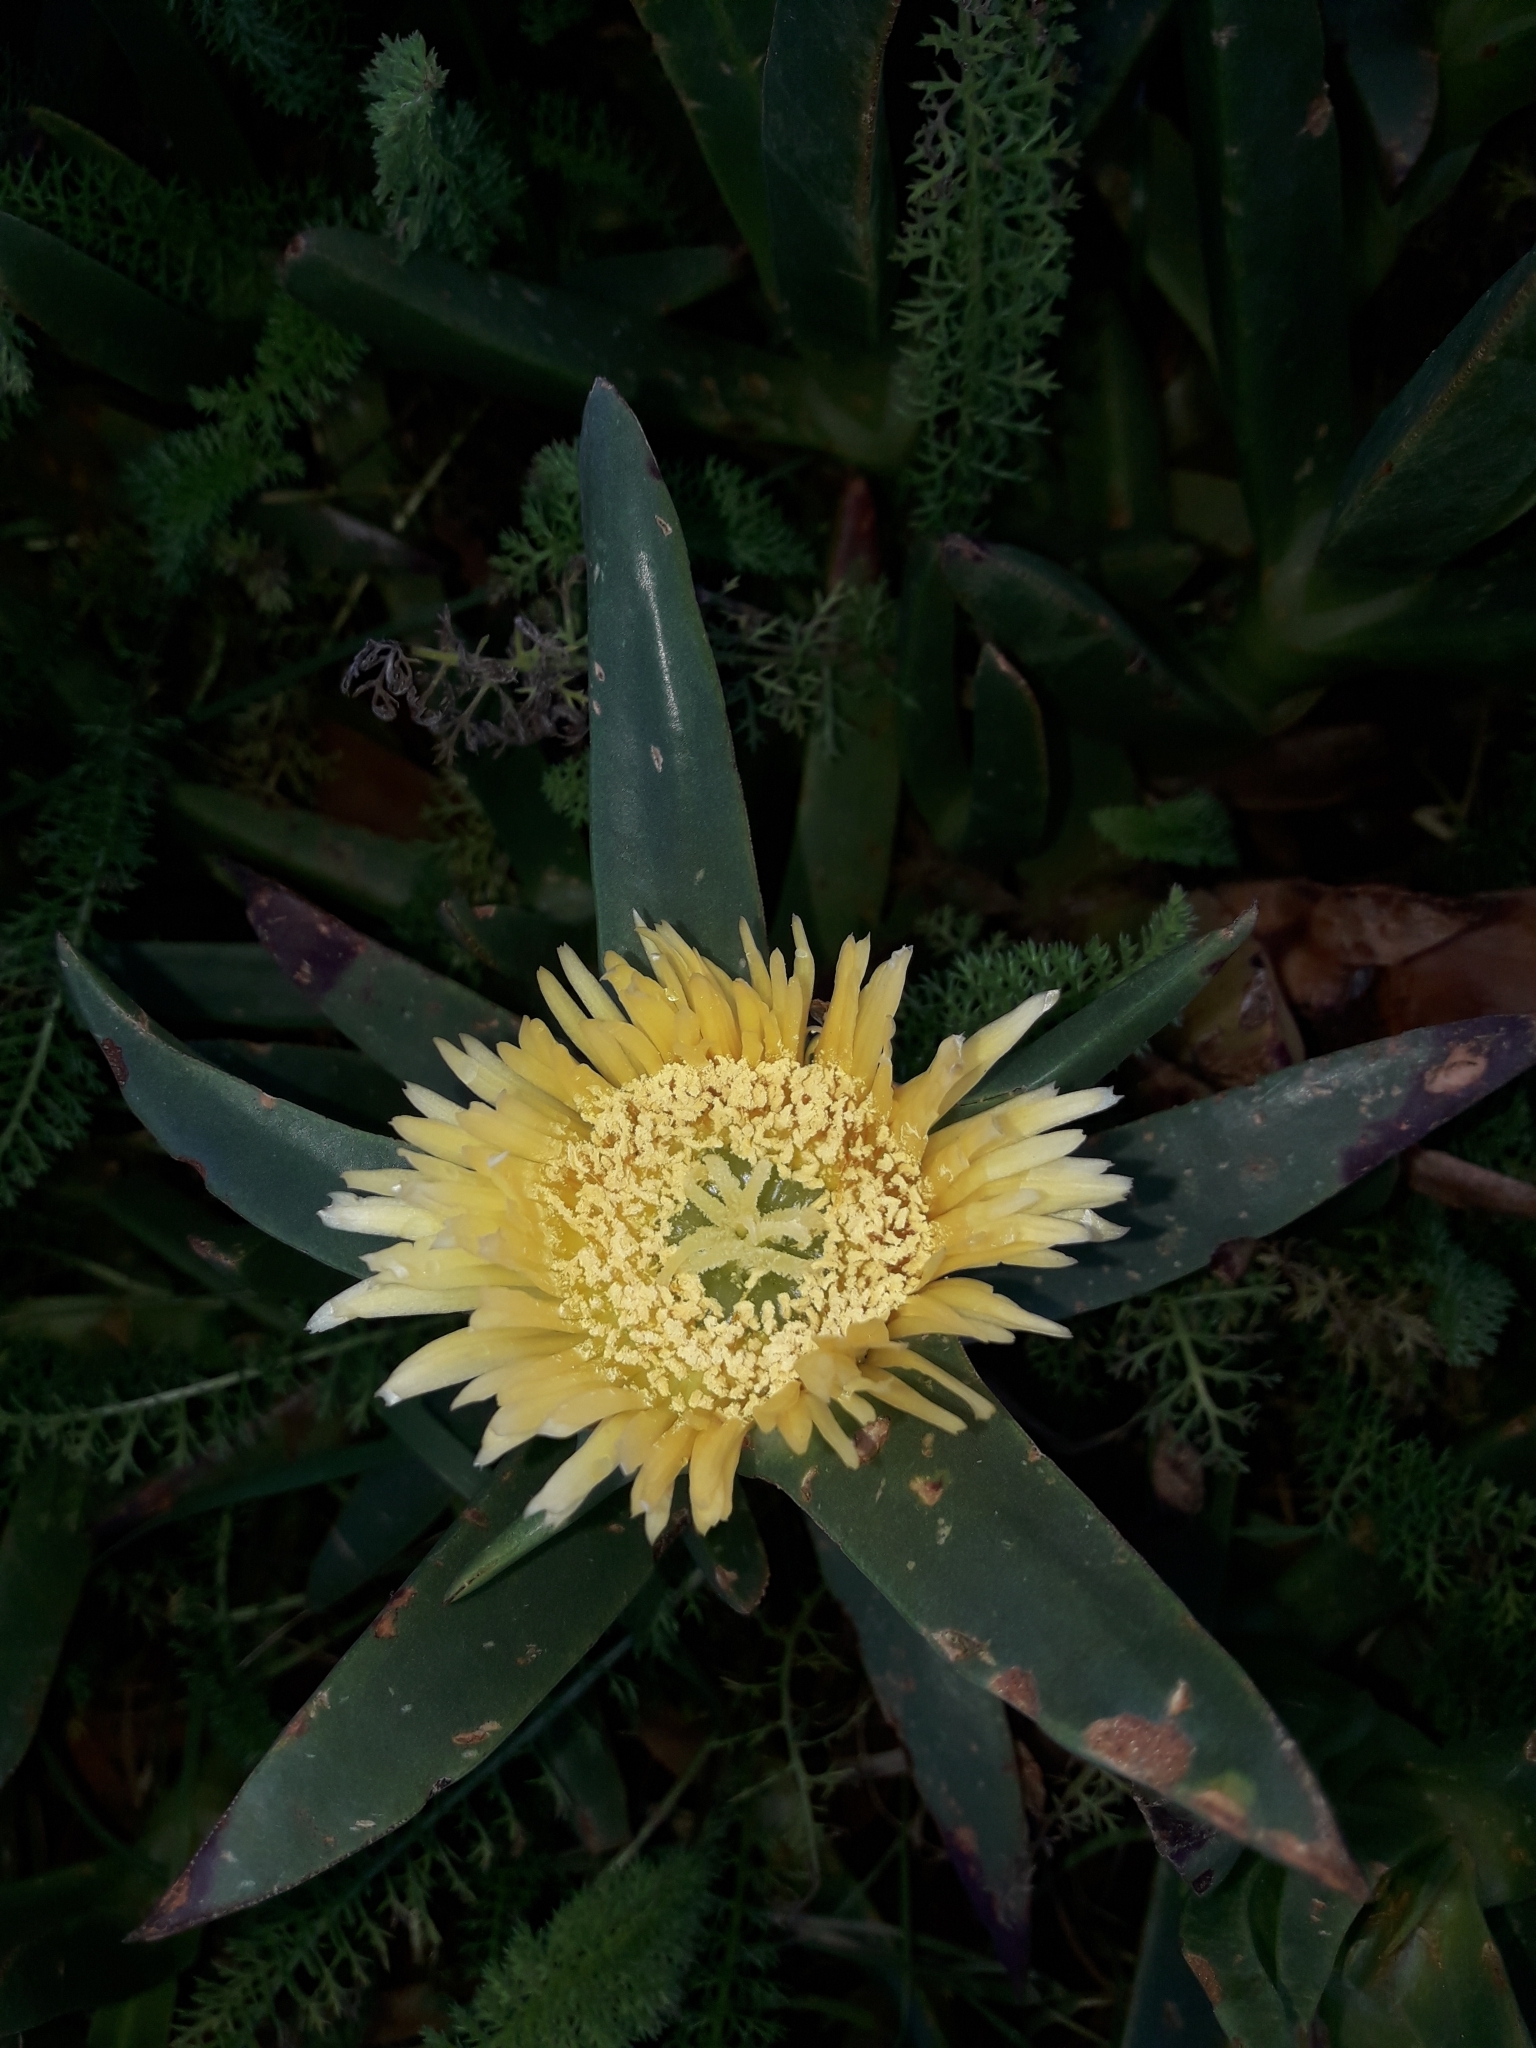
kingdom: Plantae
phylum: Tracheophyta
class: Magnoliopsida
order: Caryophyllales
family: Aizoaceae
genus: Carpobrotus
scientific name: Carpobrotus edulis
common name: Hottentot-fig
